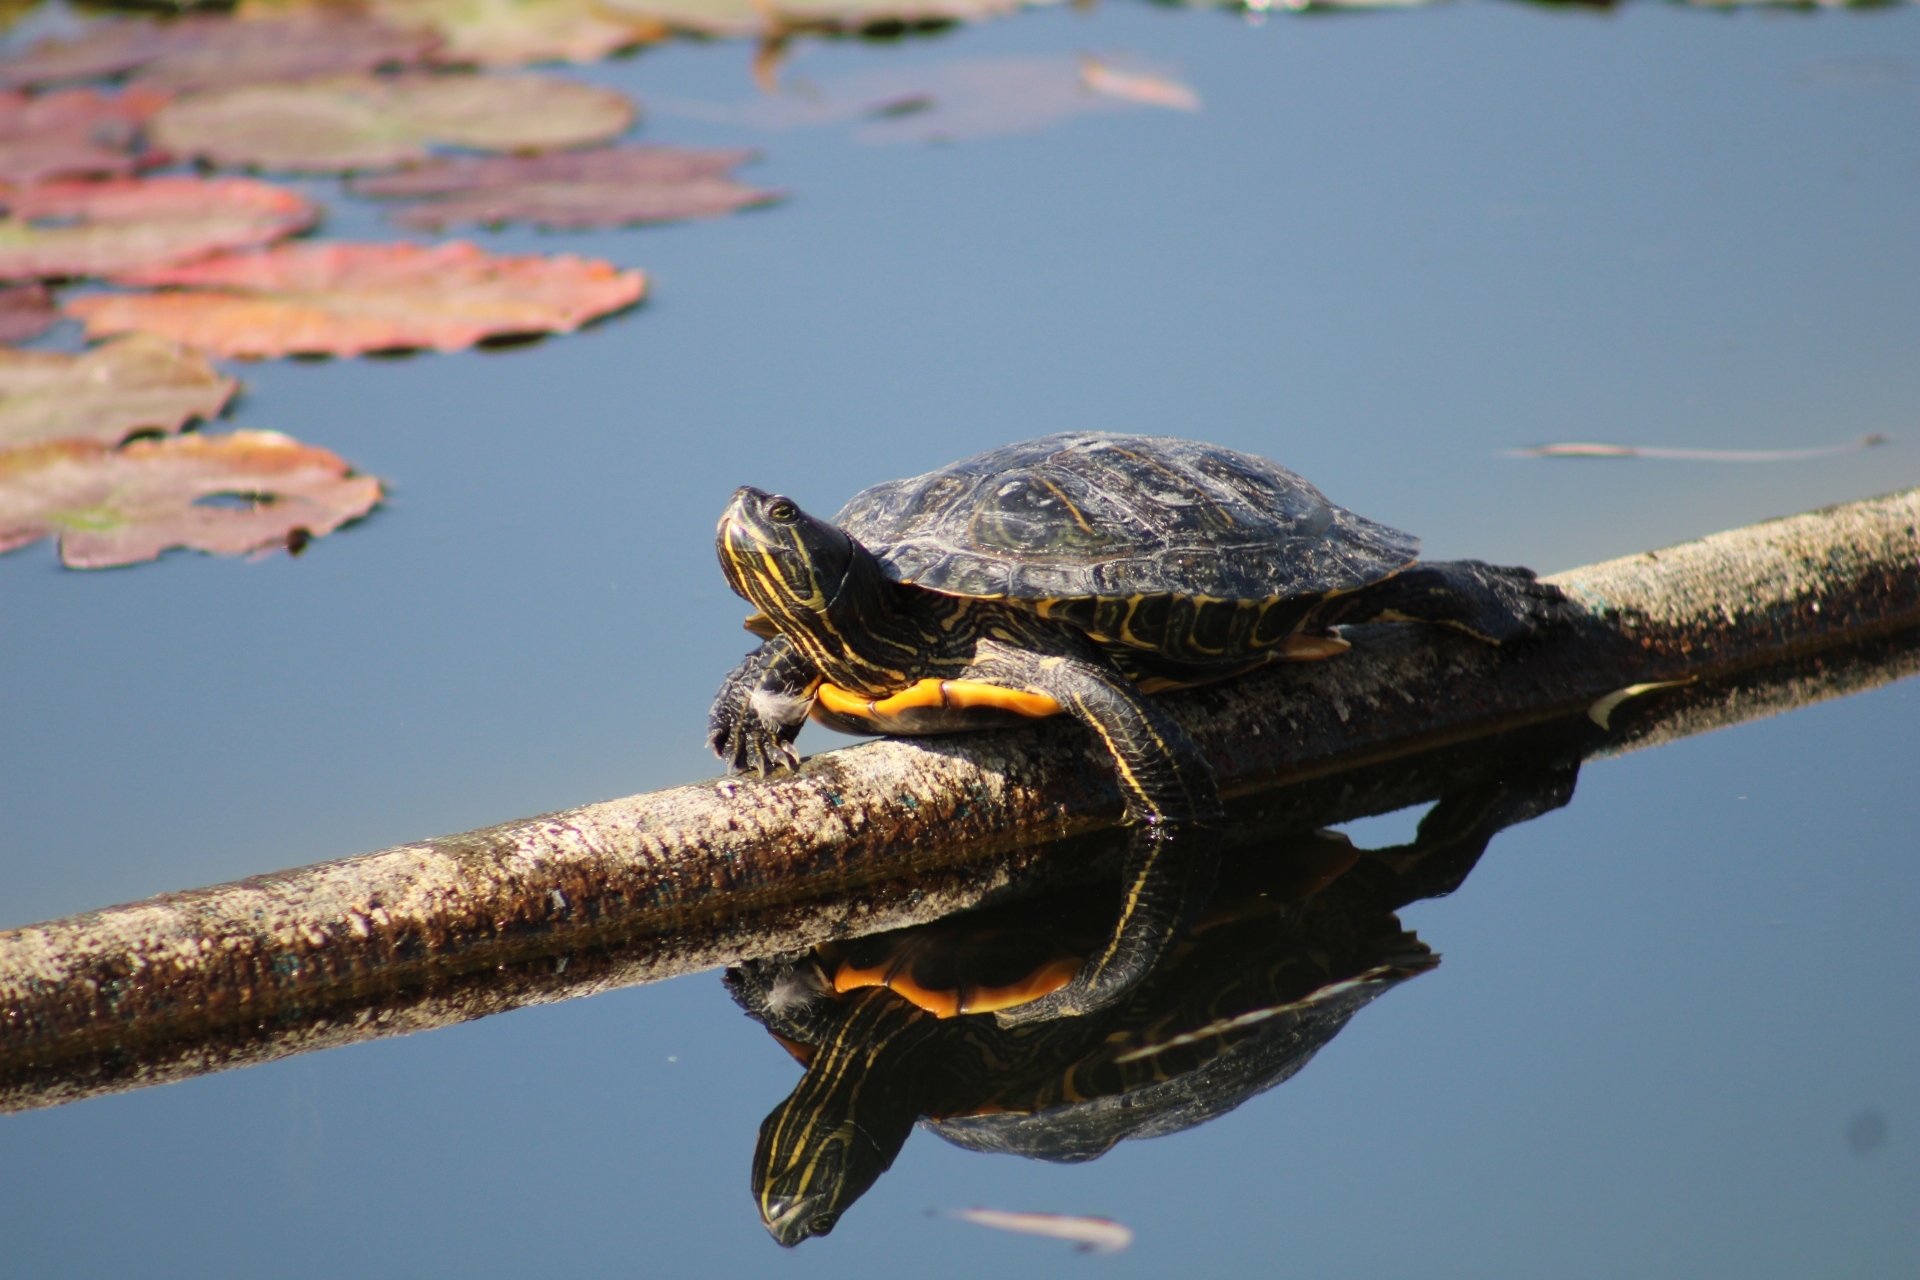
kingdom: Animalia
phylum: Chordata
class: Testudines
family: Emydidae
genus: Trachemys
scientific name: Trachemys scripta
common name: Slider
